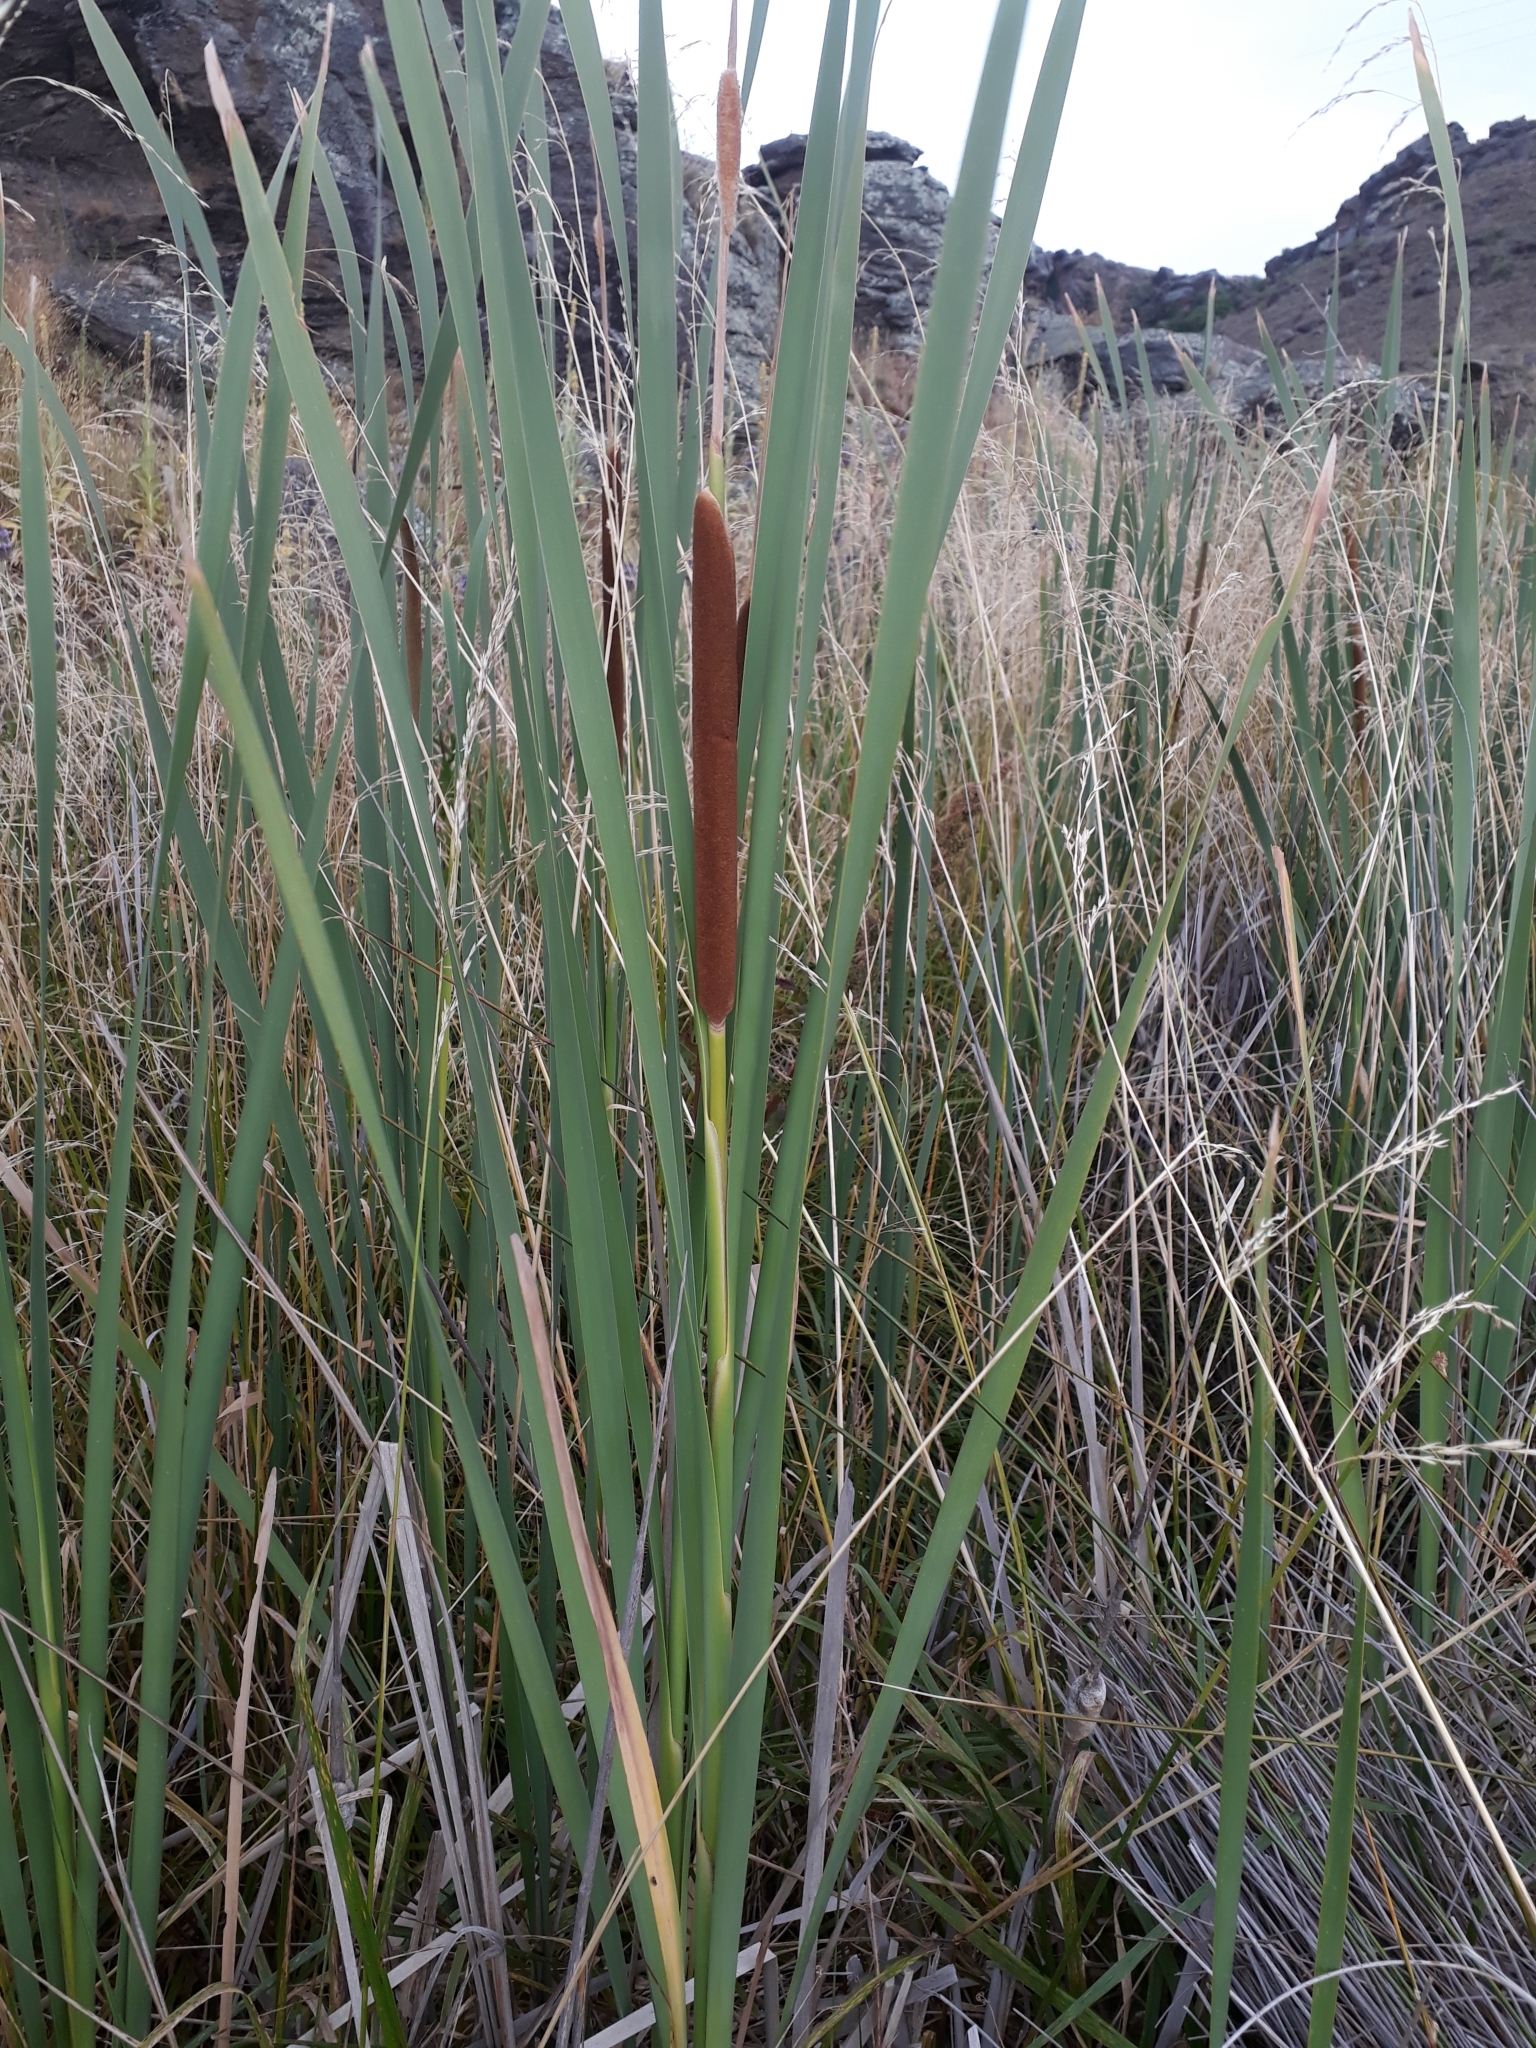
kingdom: Plantae
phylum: Tracheophyta
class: Liliopsida
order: Poales
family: Typhaceae
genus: Typha
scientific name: Typha orientalis
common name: Bullrush
